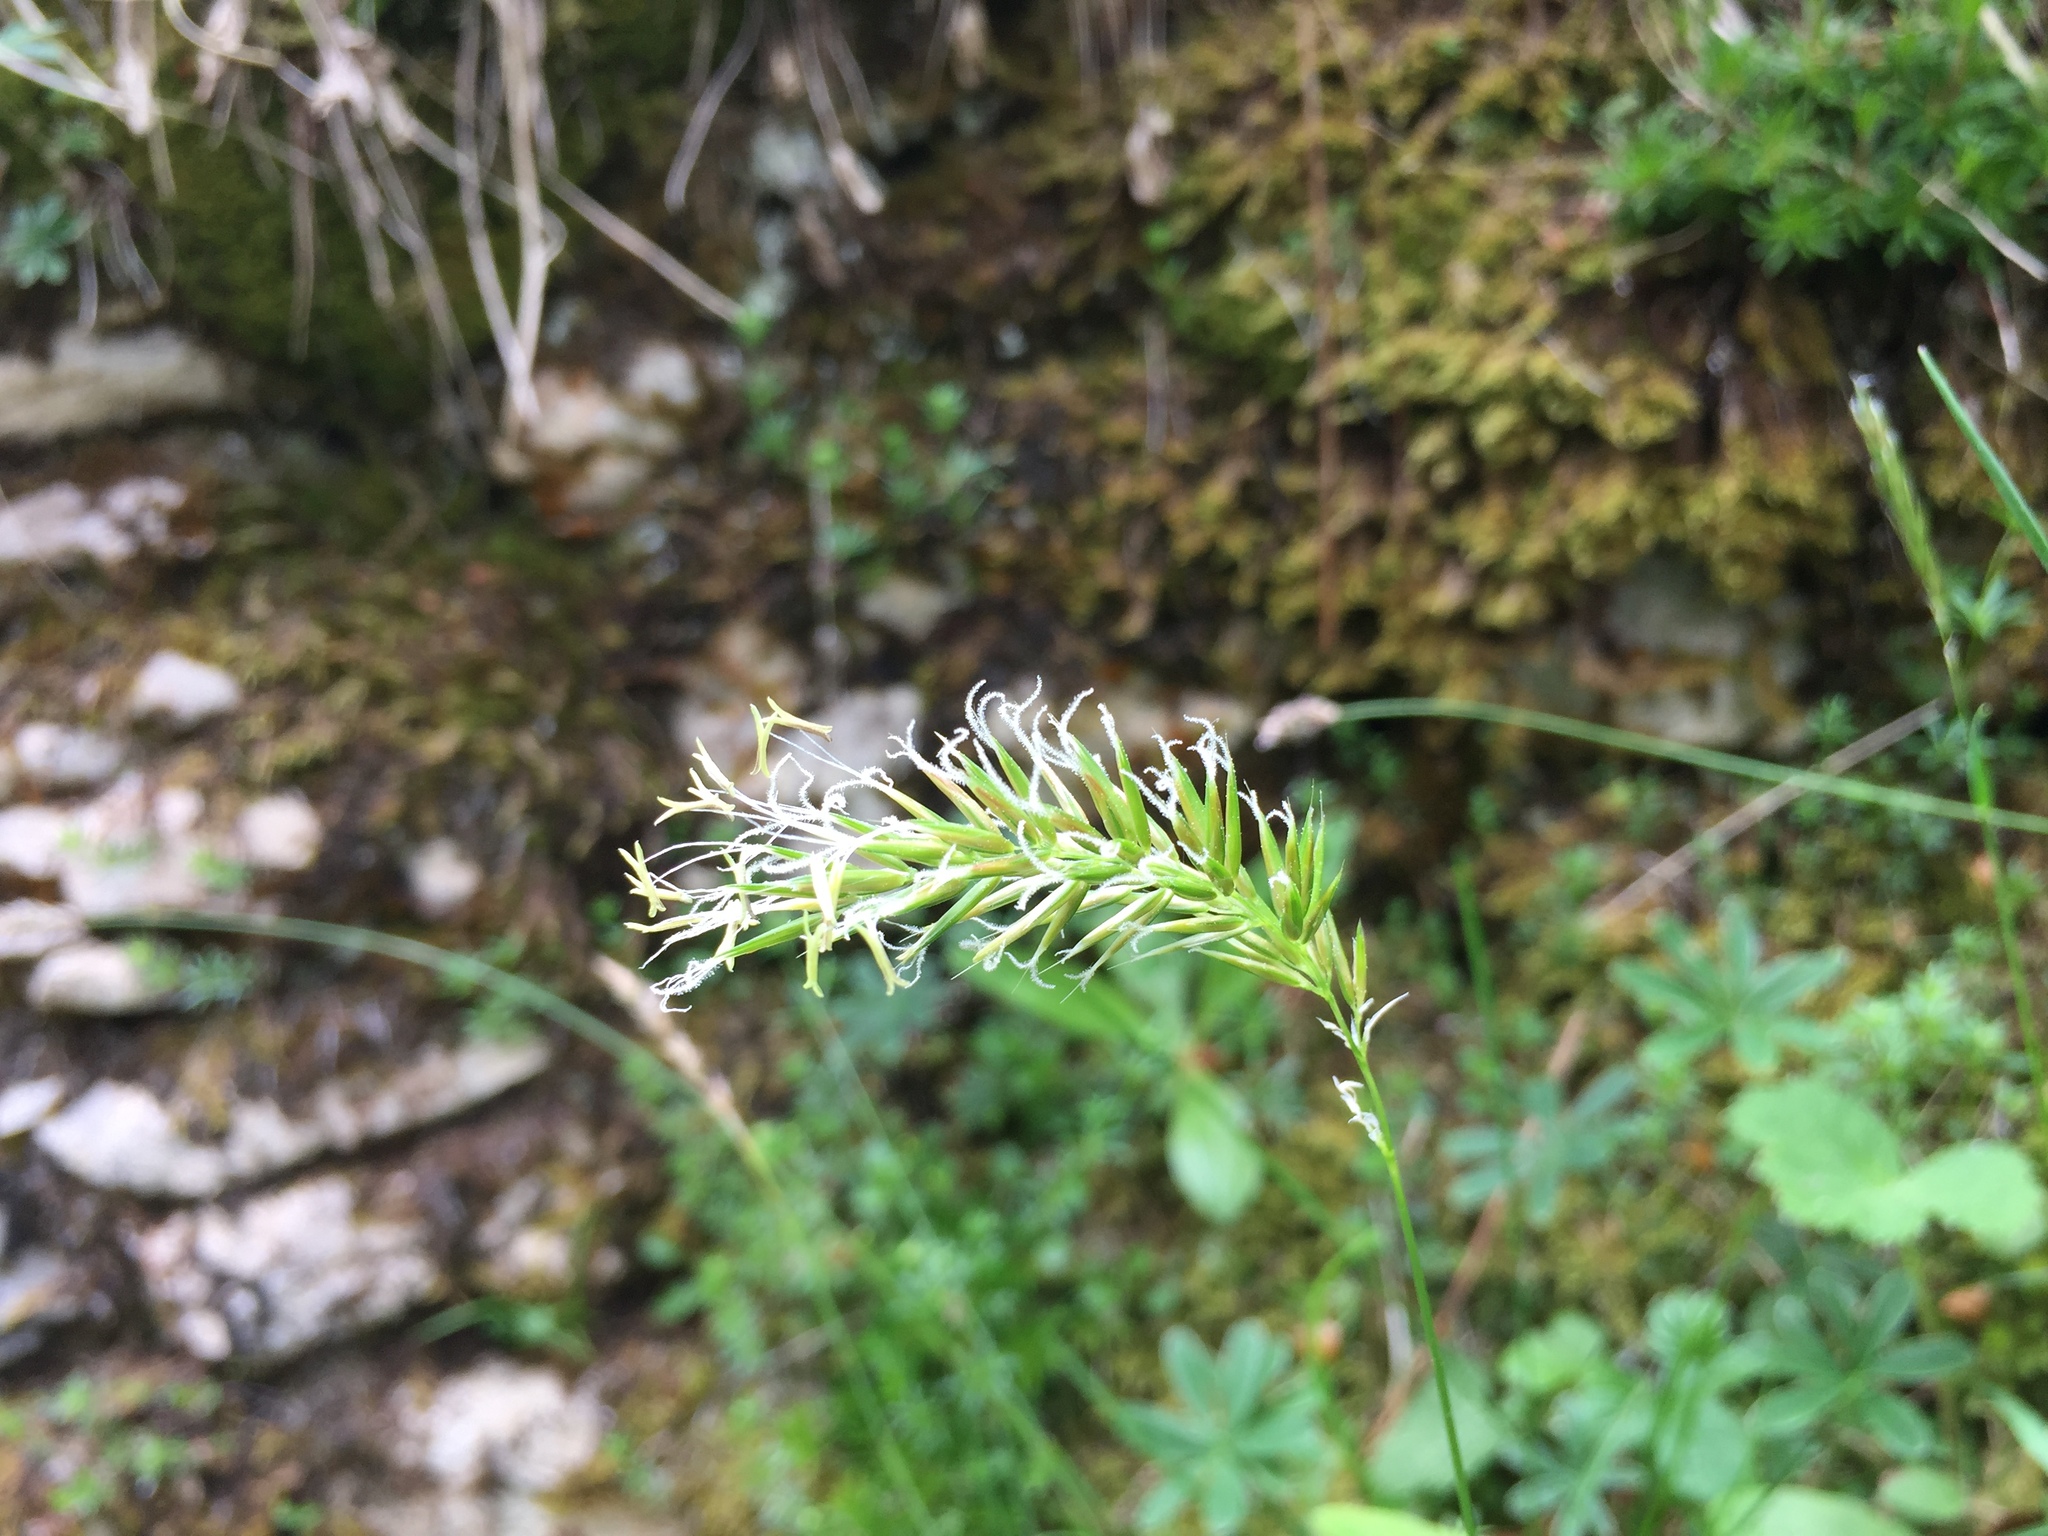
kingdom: Plantae
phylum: Tracheophyta
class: Liliopsida
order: Poales
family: Poaceae
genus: Anthoxanthum
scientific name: Anthoxanthum odoratum
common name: Sweet vernalgrass
